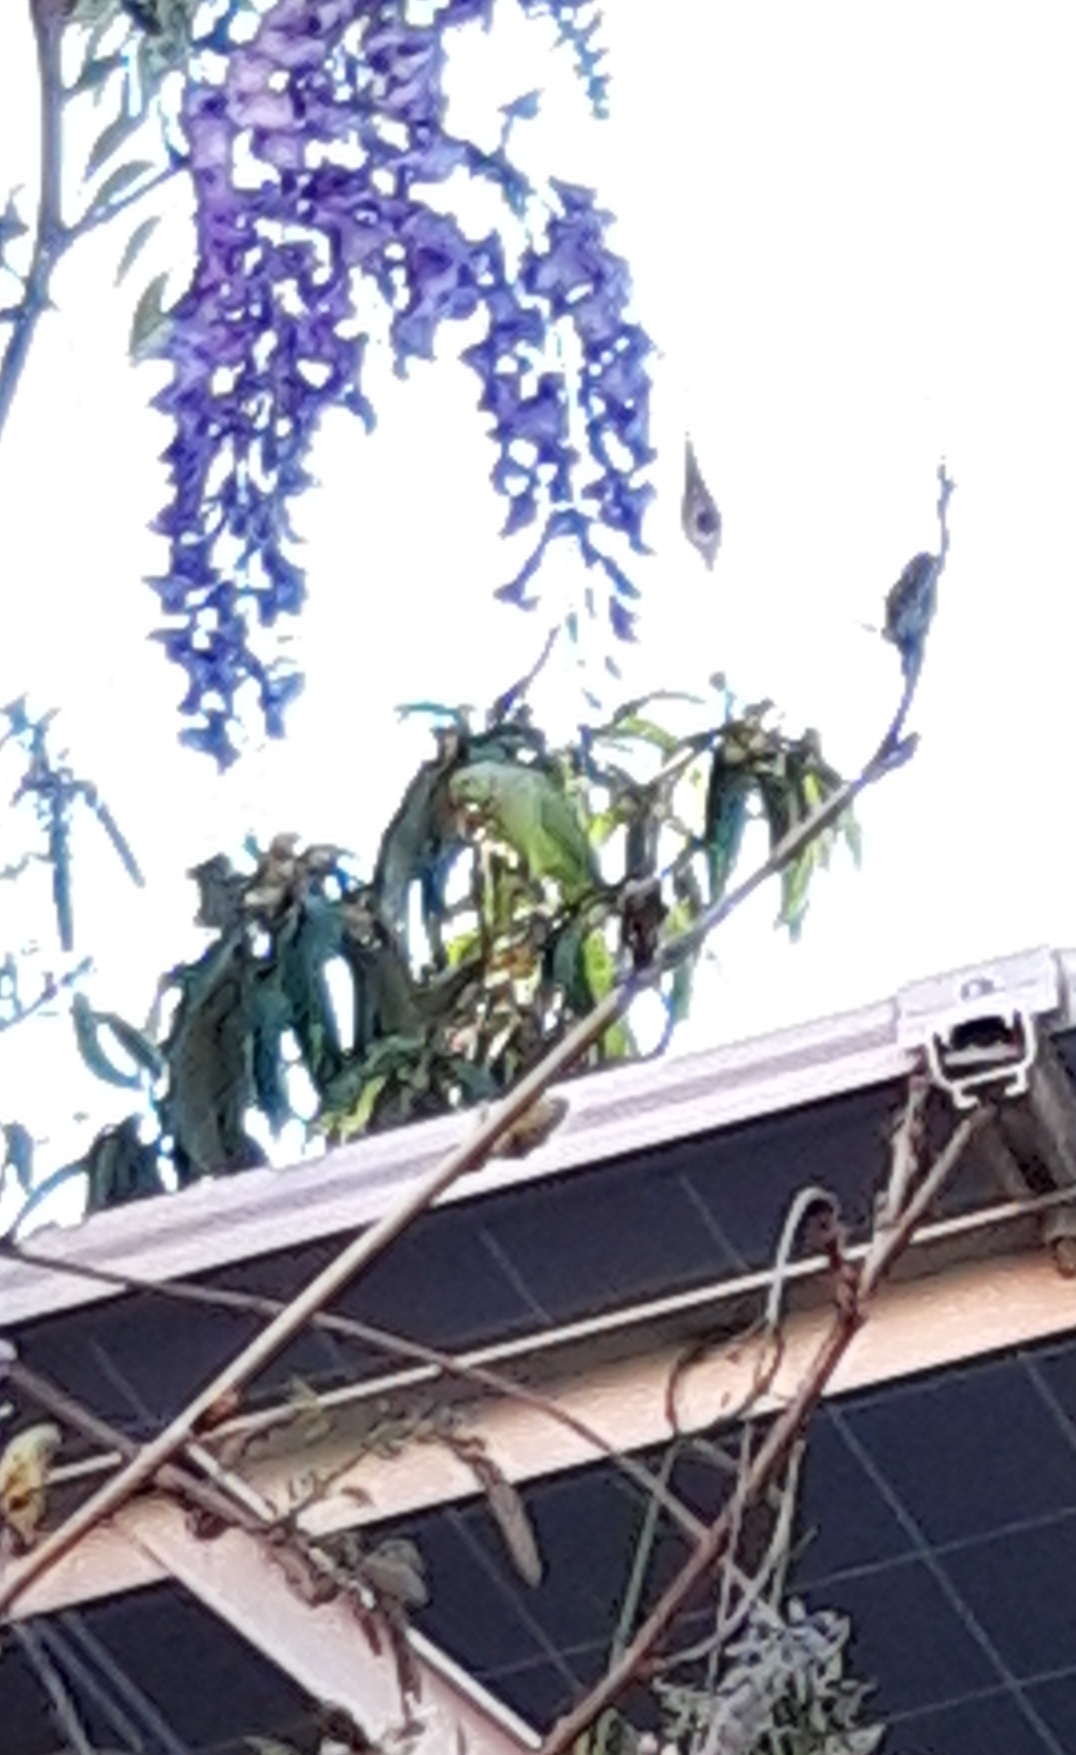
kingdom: Animalia
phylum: Chordata
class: Aves
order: Psittaciformes
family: Psittacidae
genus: Psittacula
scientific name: Psittacula krameri
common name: Rose-ringed parakeet
